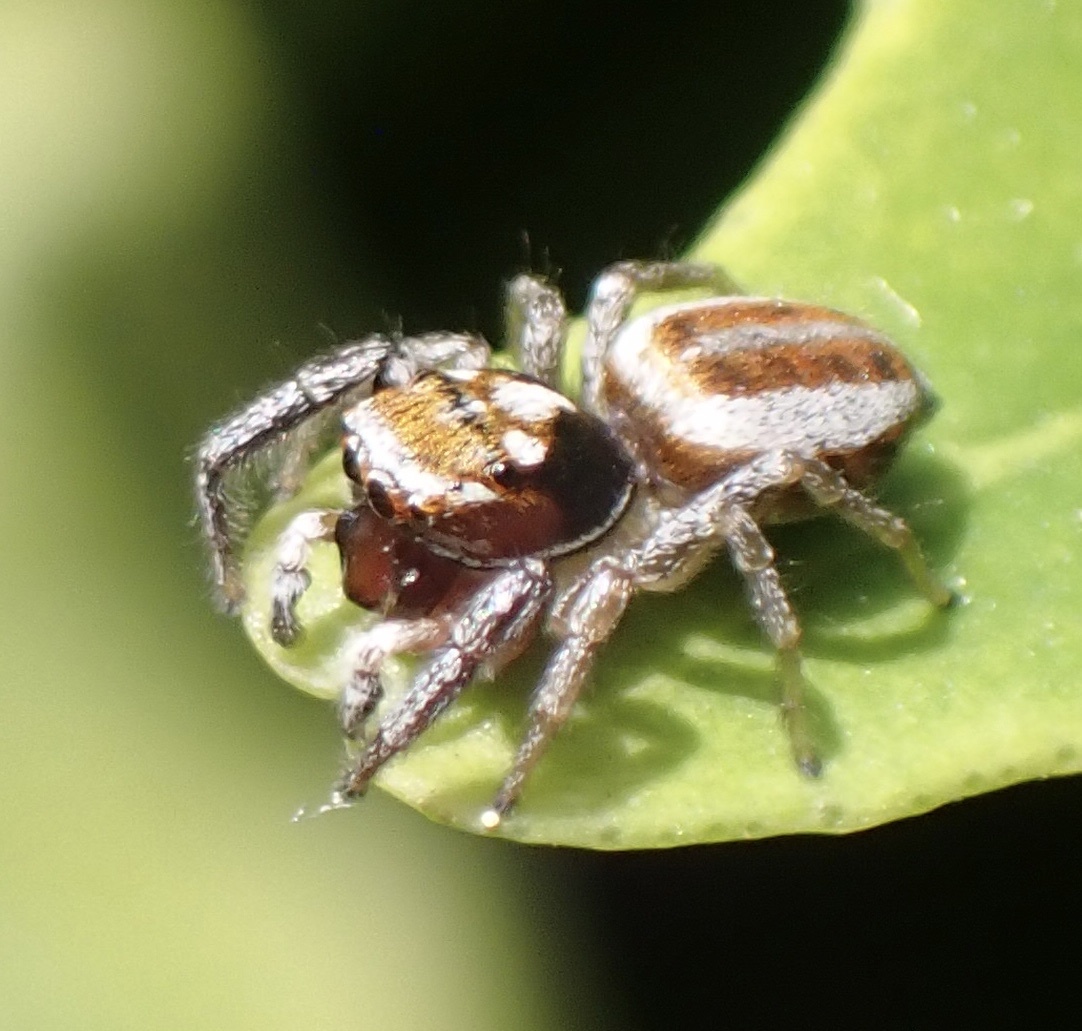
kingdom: Animalia
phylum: Arthropoda
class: Arachnida
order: Araneae
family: Salticidae
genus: Icius
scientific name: Icius hamatus
